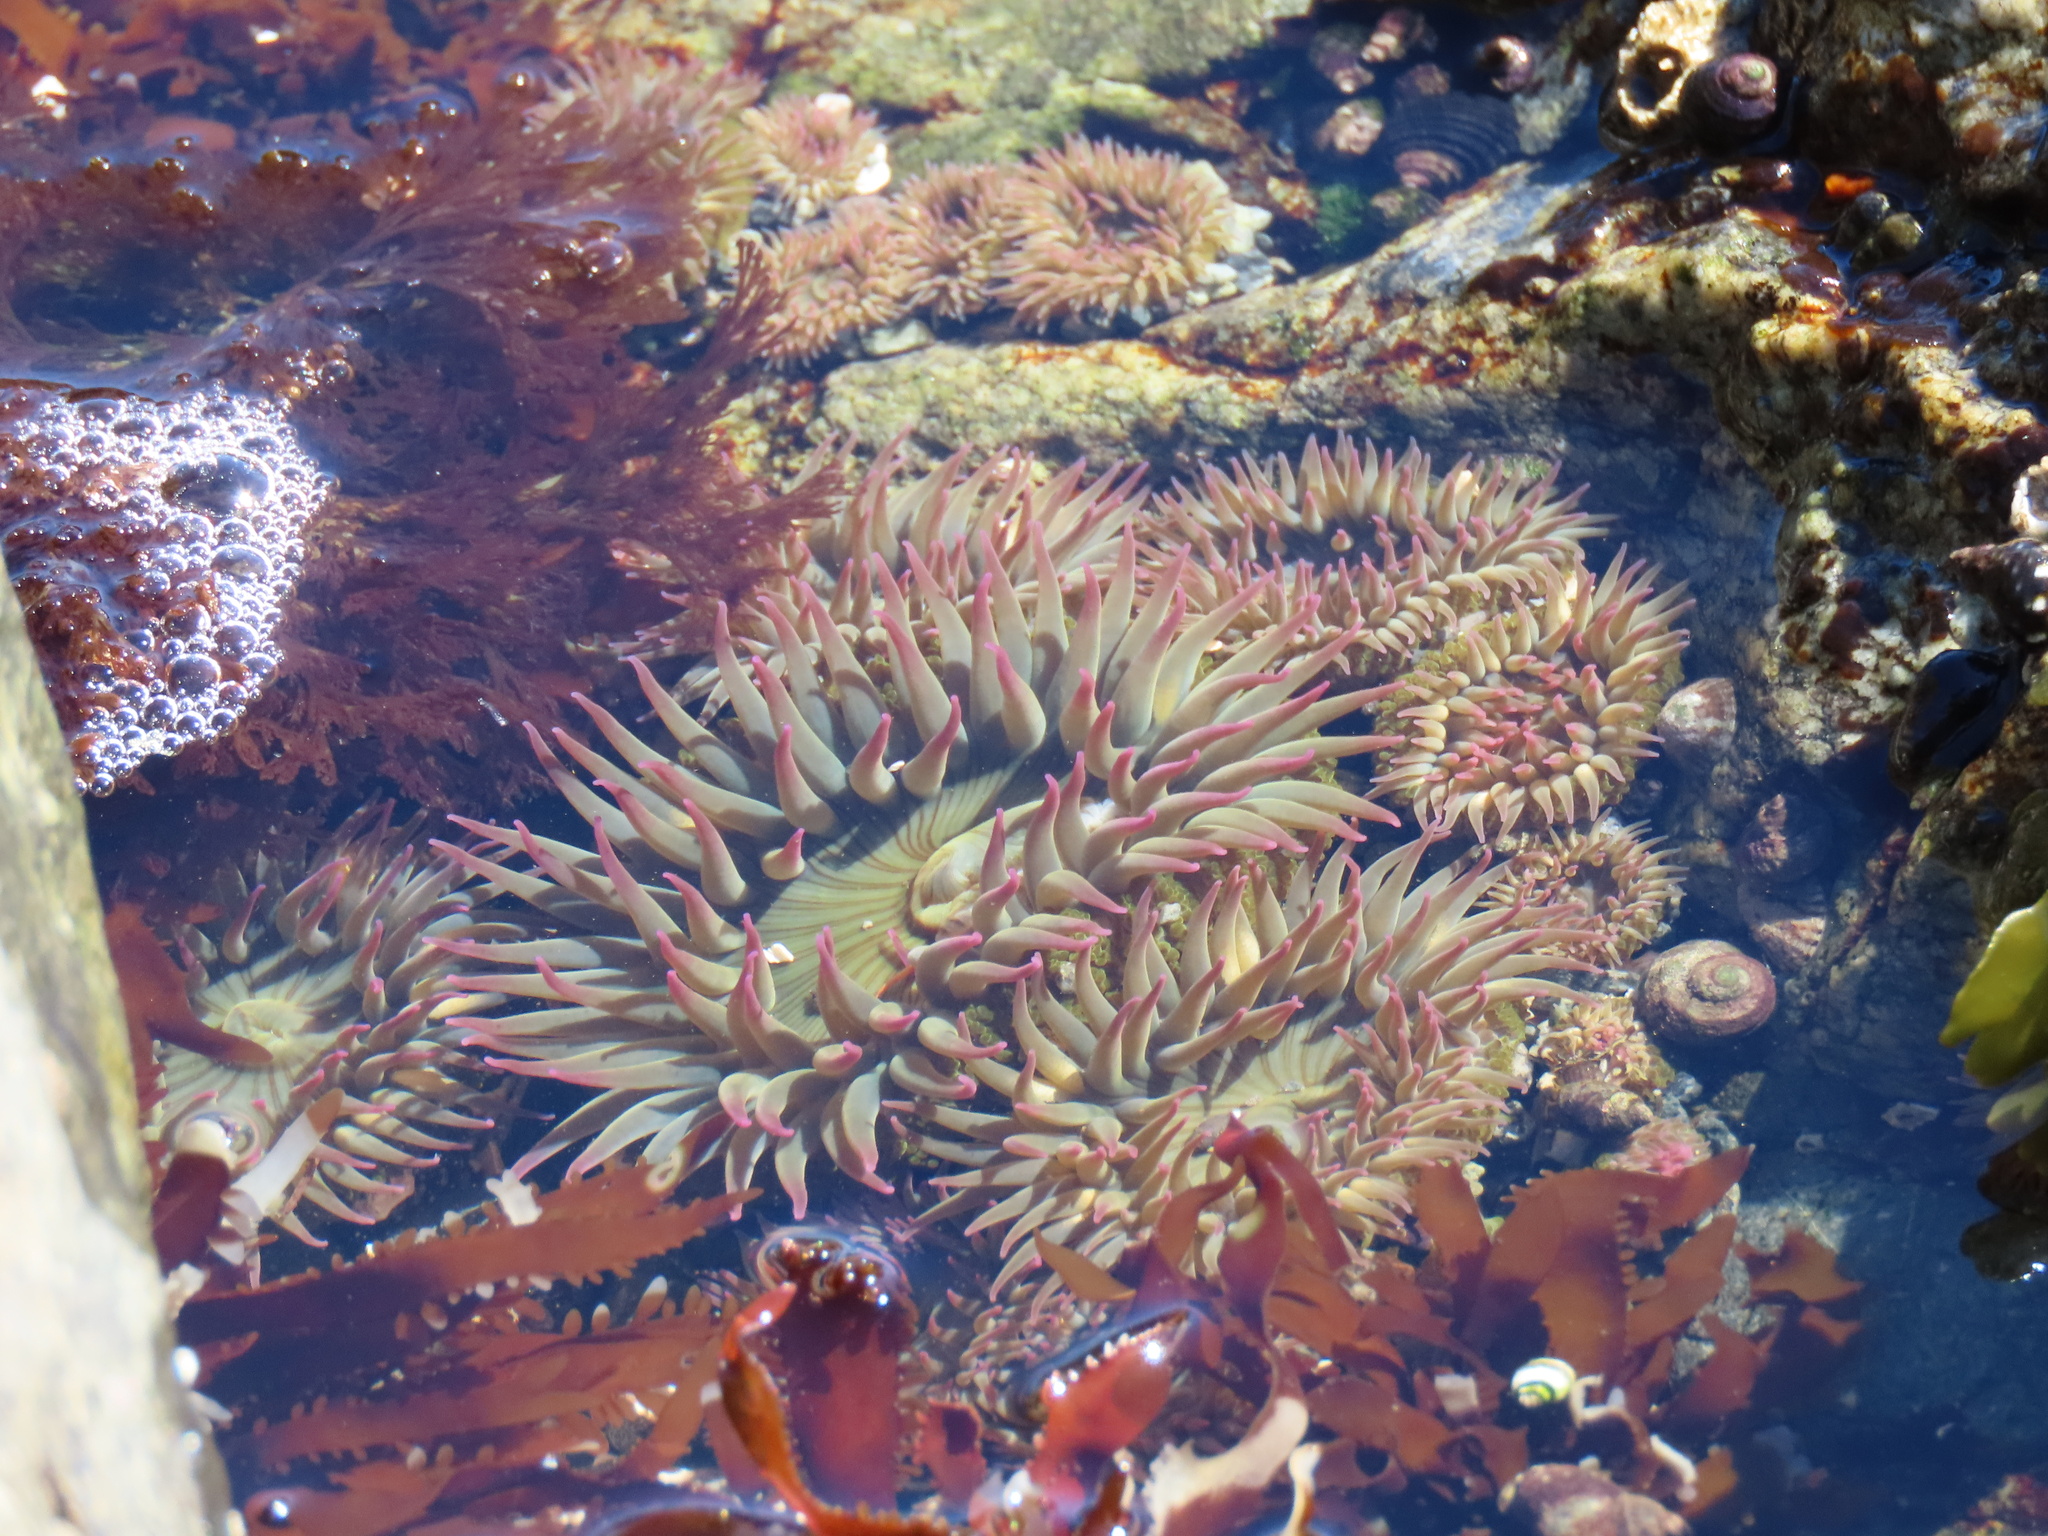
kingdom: Animalia
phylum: Cnidaria
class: Anthozoa
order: Actiniaria
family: Actiniidae
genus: Anthopleura
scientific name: Anthopleura elegantissima
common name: Clonal anemone
